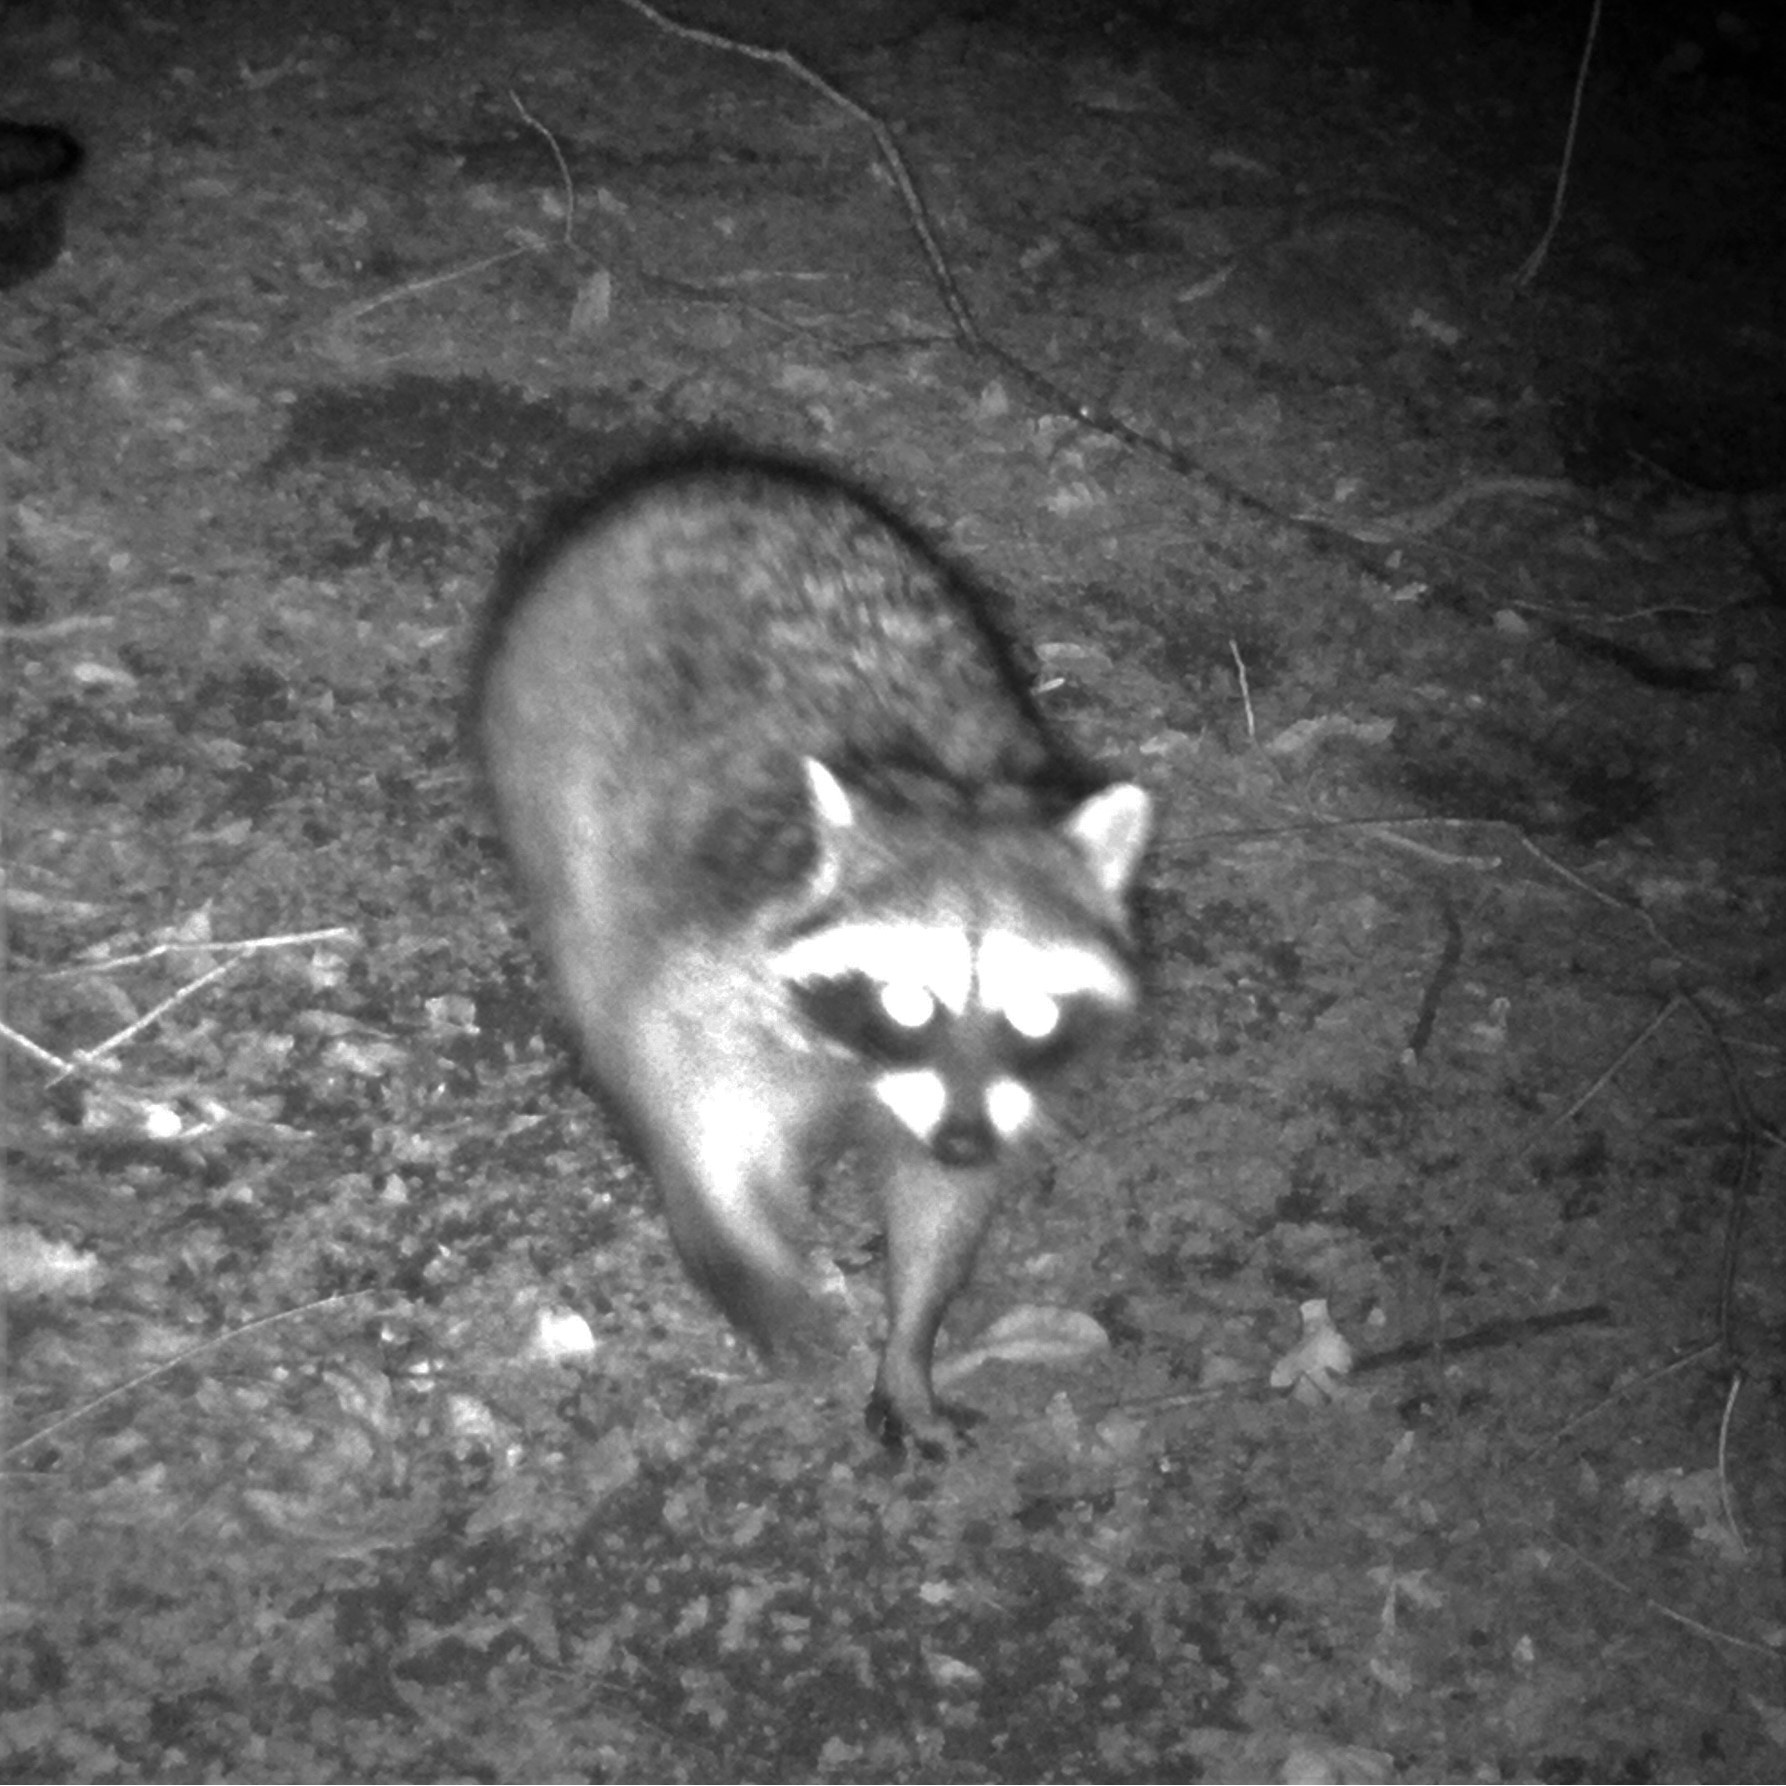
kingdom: Animalia
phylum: Chordata
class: Mammalia
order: Carnivora
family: Procyonidae
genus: Procyon
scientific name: Procyon lotor
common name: Raccoon
